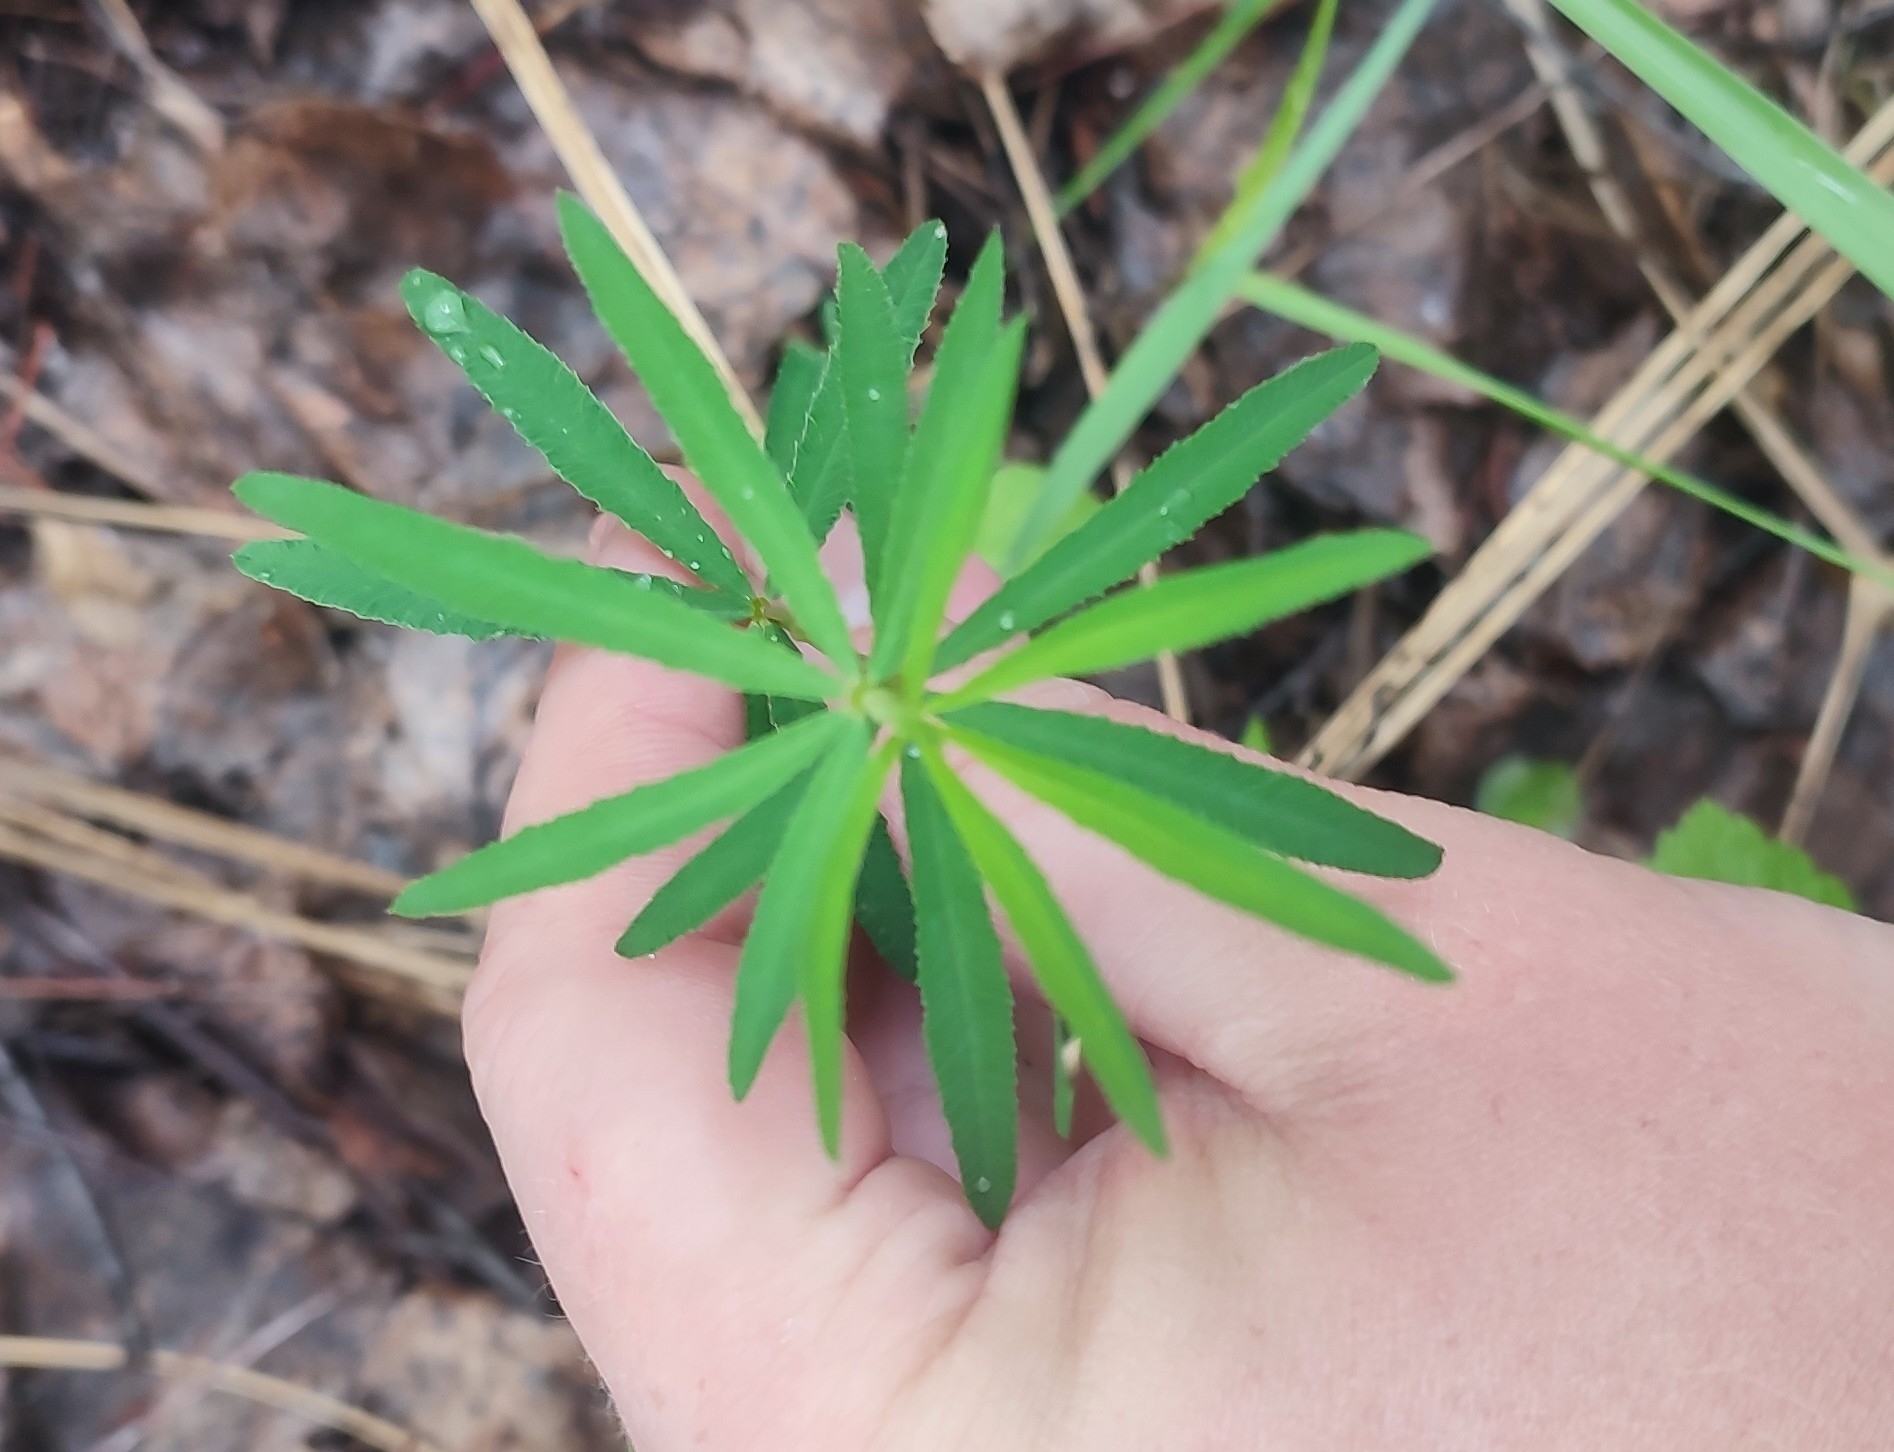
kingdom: Plantae
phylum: Tracheophyta
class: Magnoliopsida
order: Fabales
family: Fabaceae
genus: Trifolium
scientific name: Trifolium lupinaster
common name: Lupine clover
